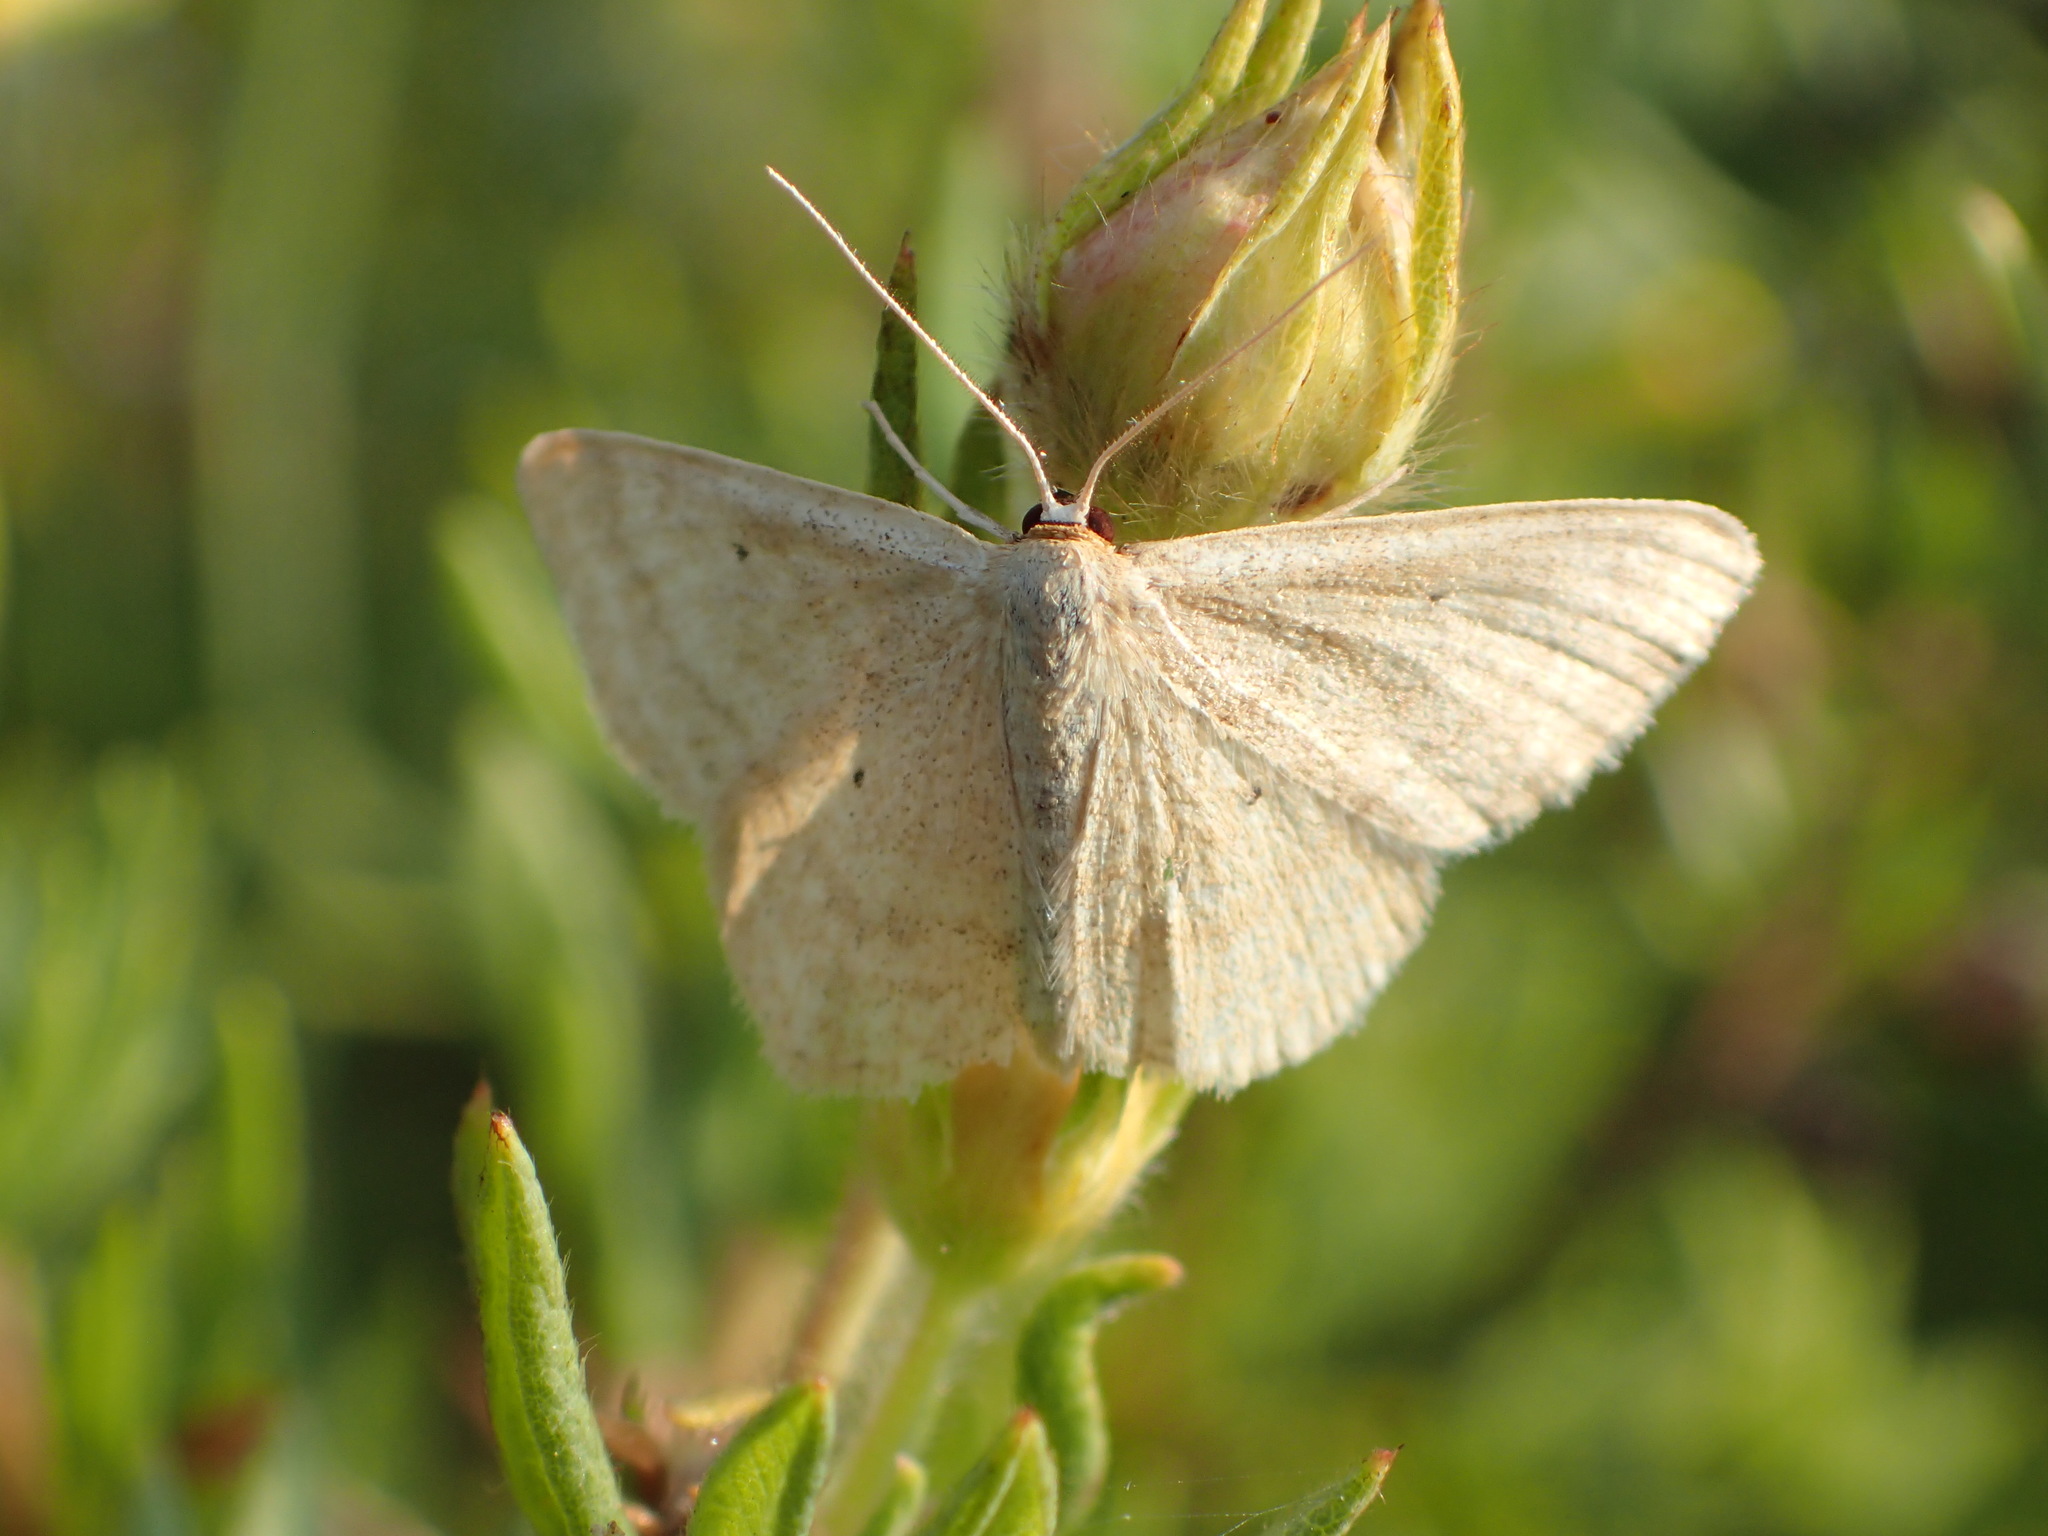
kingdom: Animalia
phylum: Arthropoda
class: Insecta
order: Lepidoptera
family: Geometridae
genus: Scopula
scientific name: Scopula inductata
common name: Soft-lined wave
